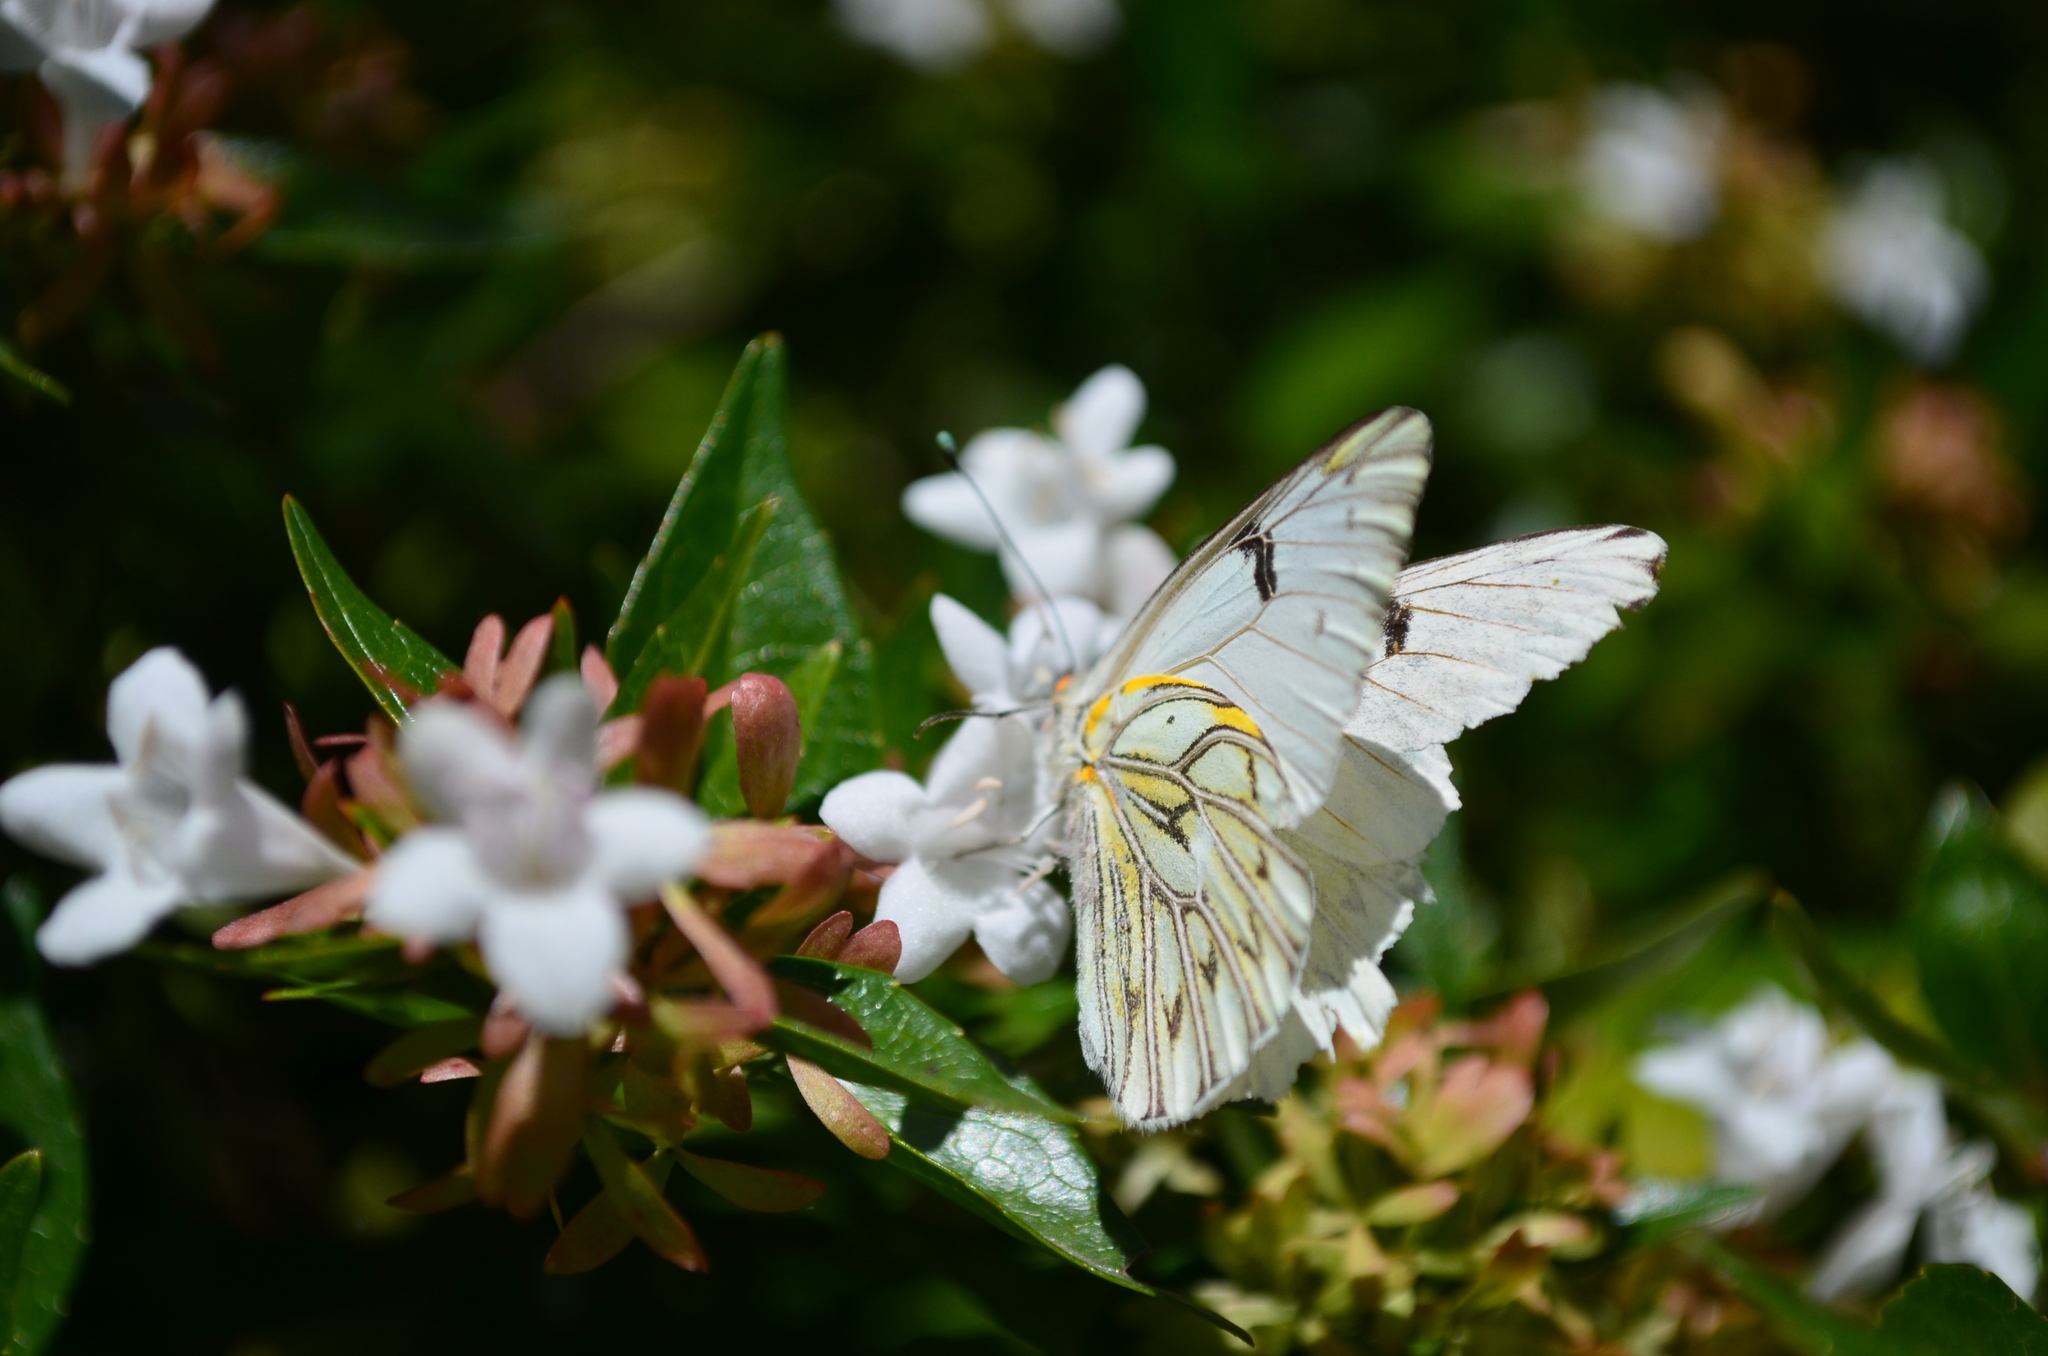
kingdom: Animalia
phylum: Arthropoda
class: Insecta
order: Lepidoptera
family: Pieridae
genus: Tatochila
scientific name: Tatochila autodice
